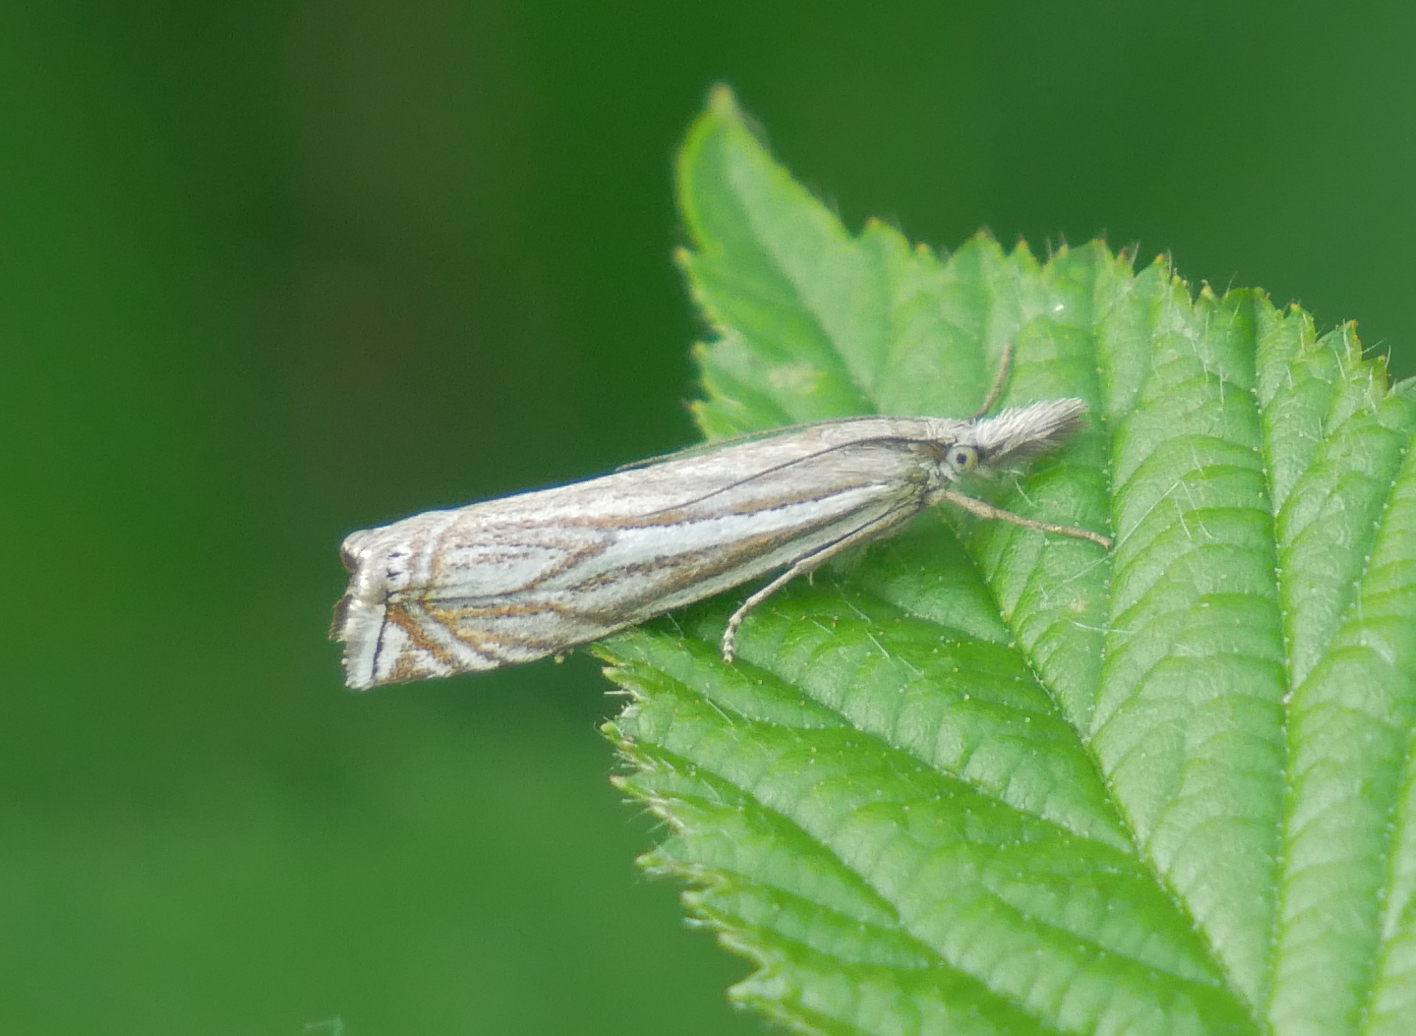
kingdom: Animalia
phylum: Arthropoda
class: Insecta
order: Lepidoptera
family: Crambidae
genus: Crambus
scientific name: Crambus nemorella
